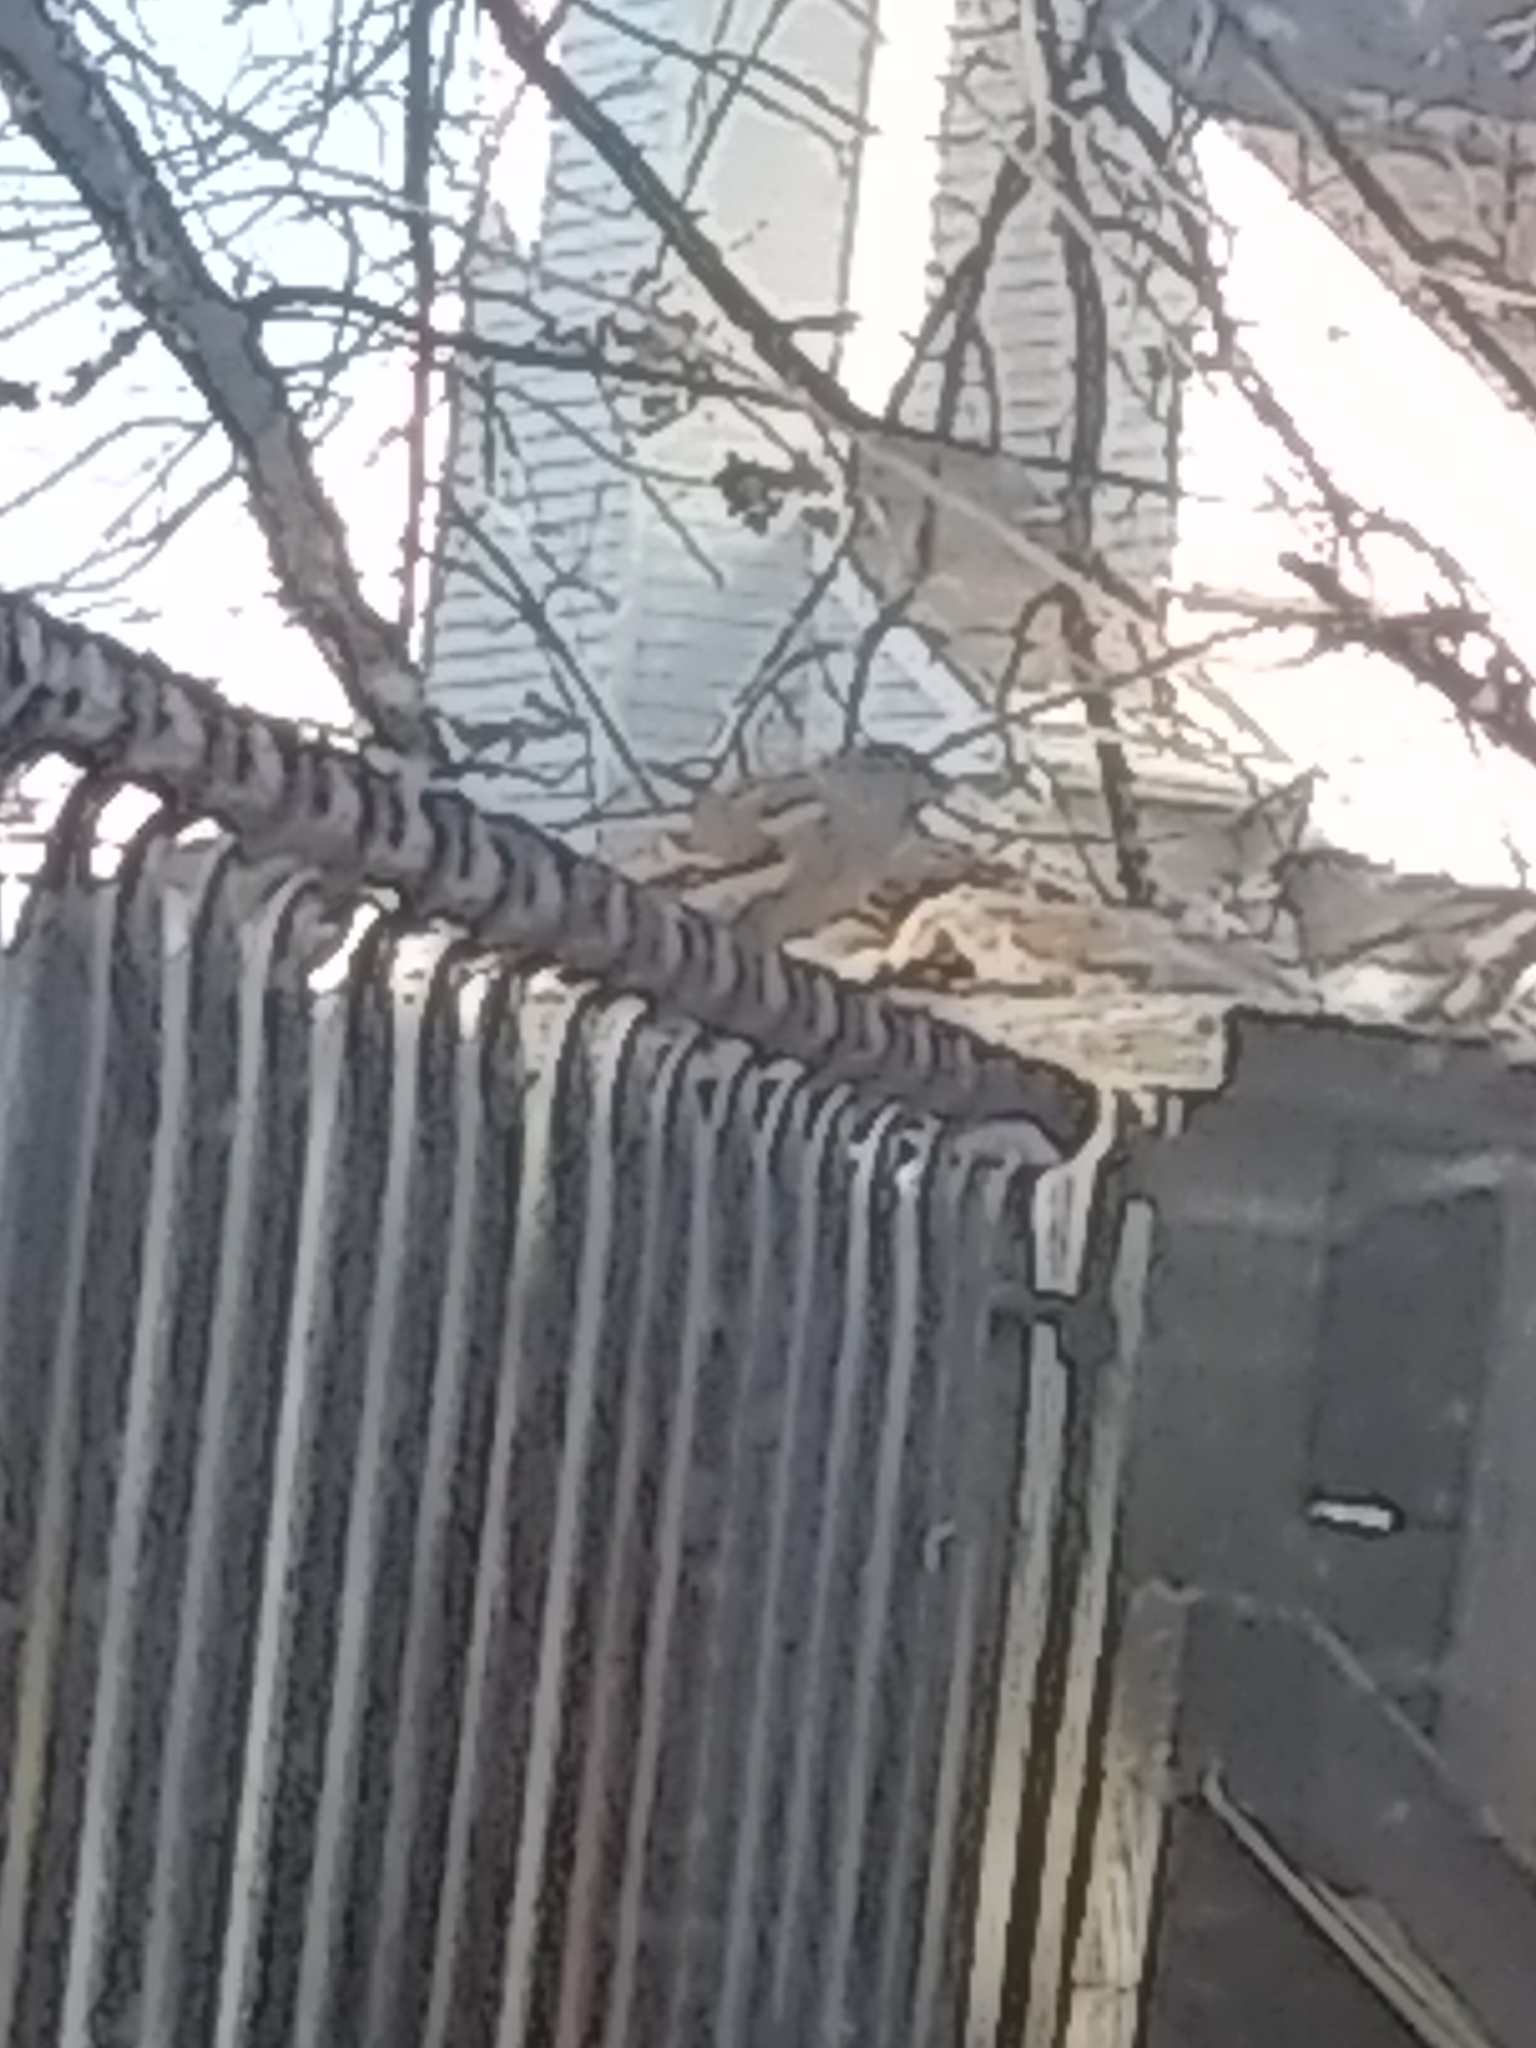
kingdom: Animalia
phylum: Chordata
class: Aves
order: Passeriformes
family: Passeridae
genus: Passer
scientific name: Passer domesticus
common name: House sparrow
